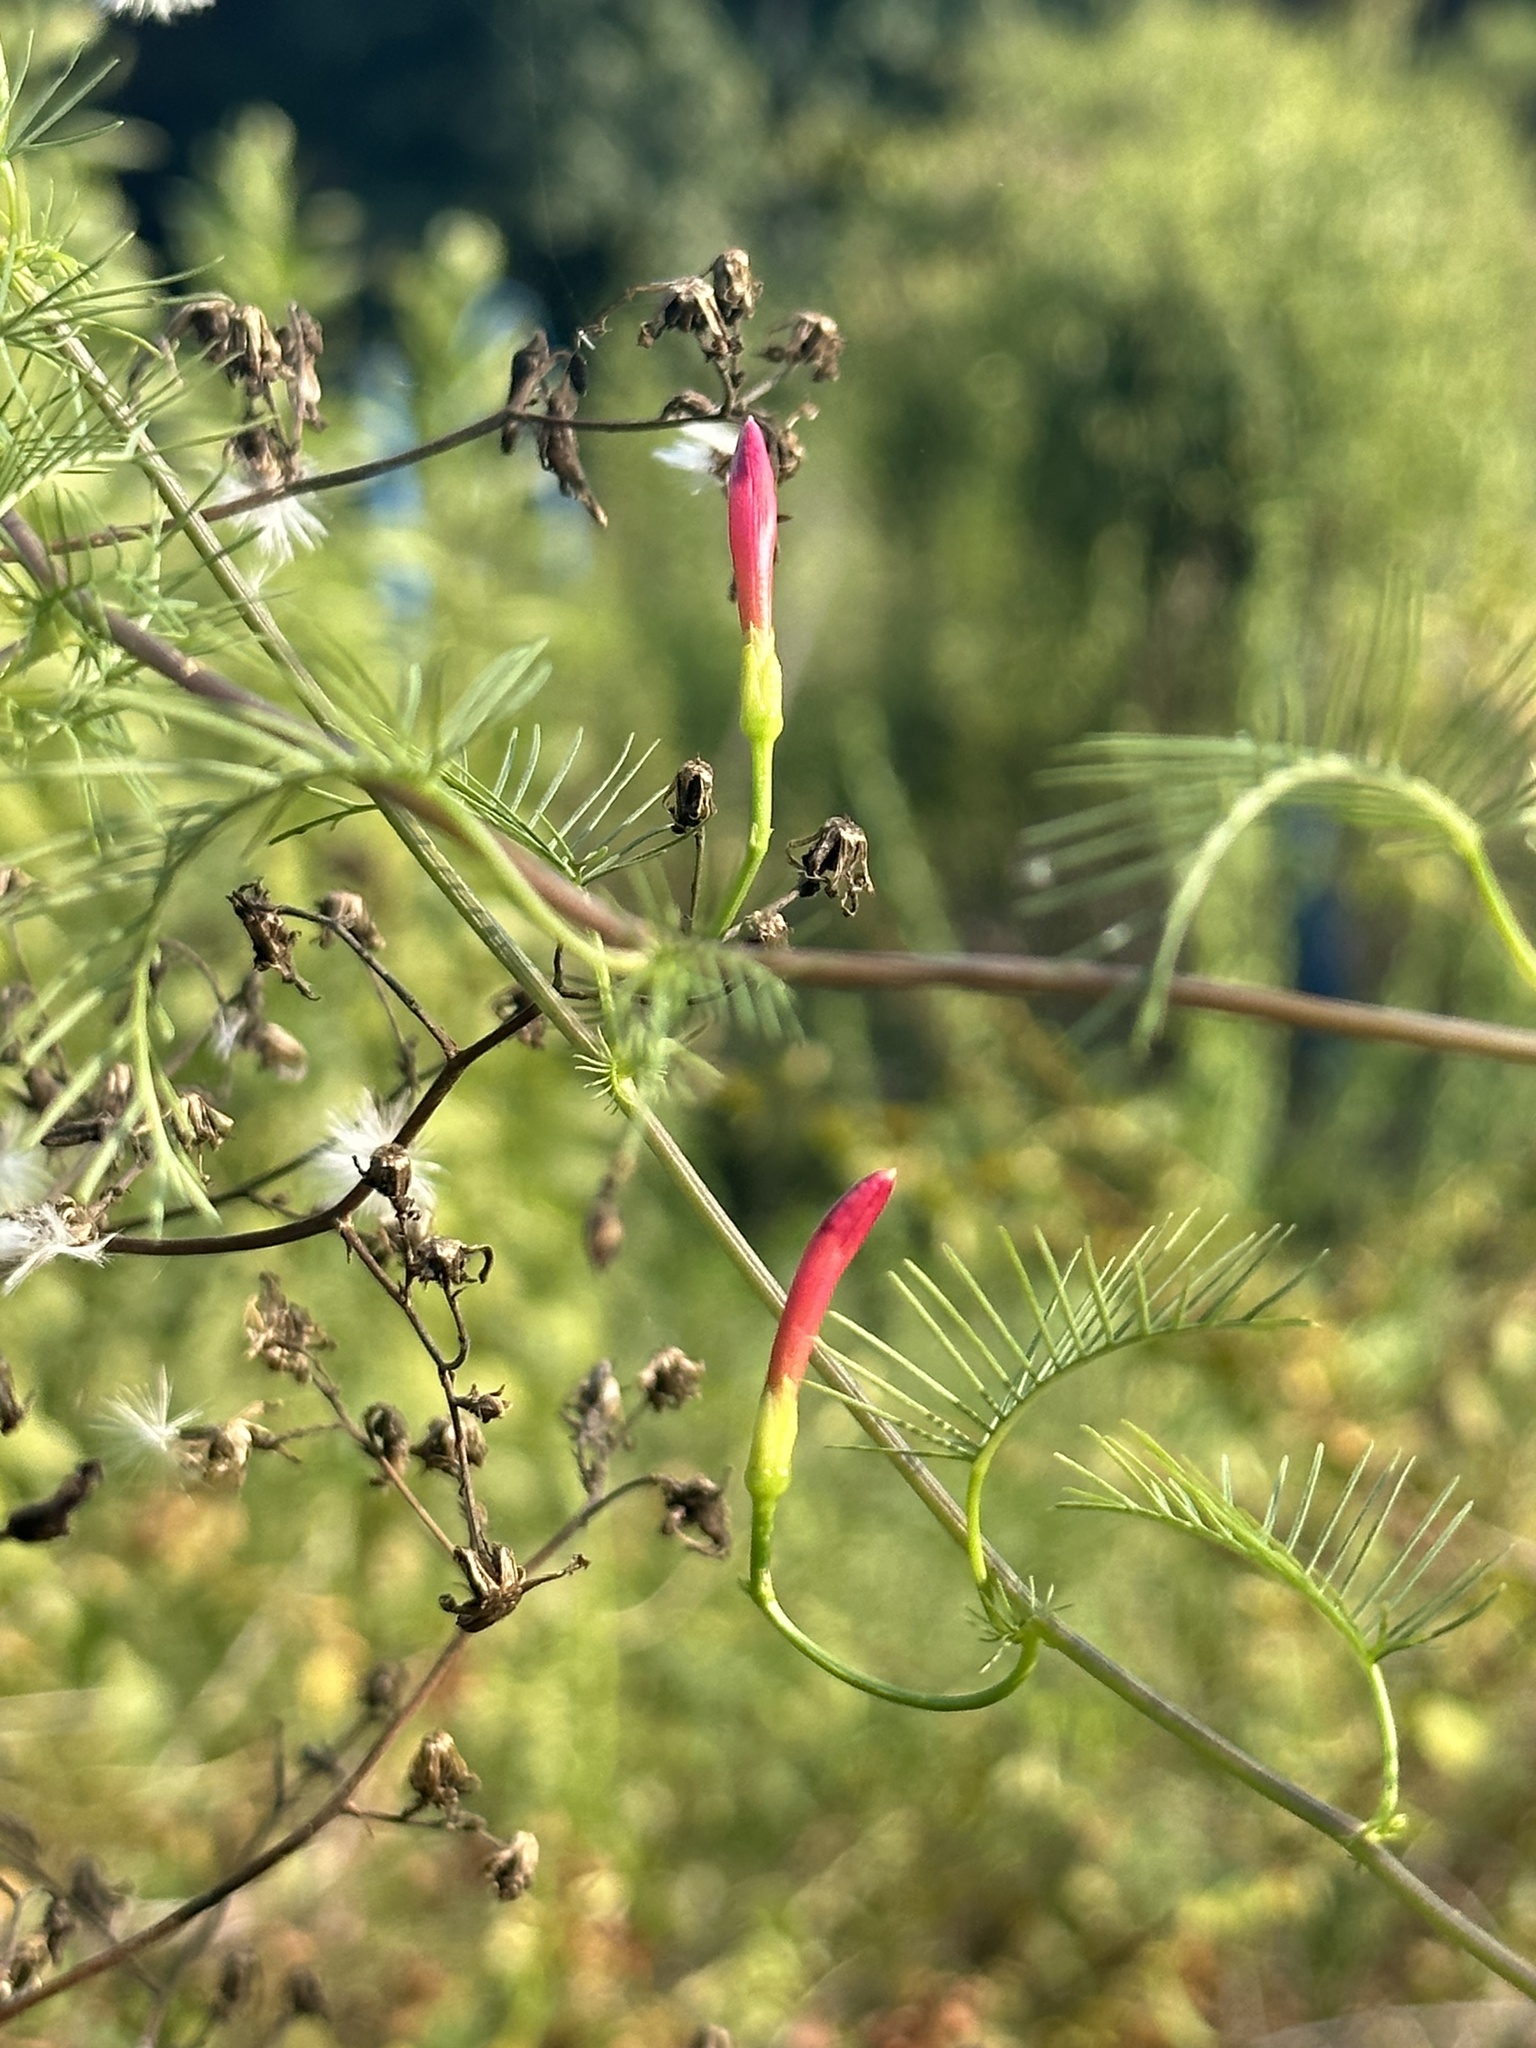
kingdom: Plantae
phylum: Tracheophyta
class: Magnoliopsida
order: Solanales
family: Convolvulaceae
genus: Ipomoea
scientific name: Ipomoea quamoclit
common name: Cypress vine
